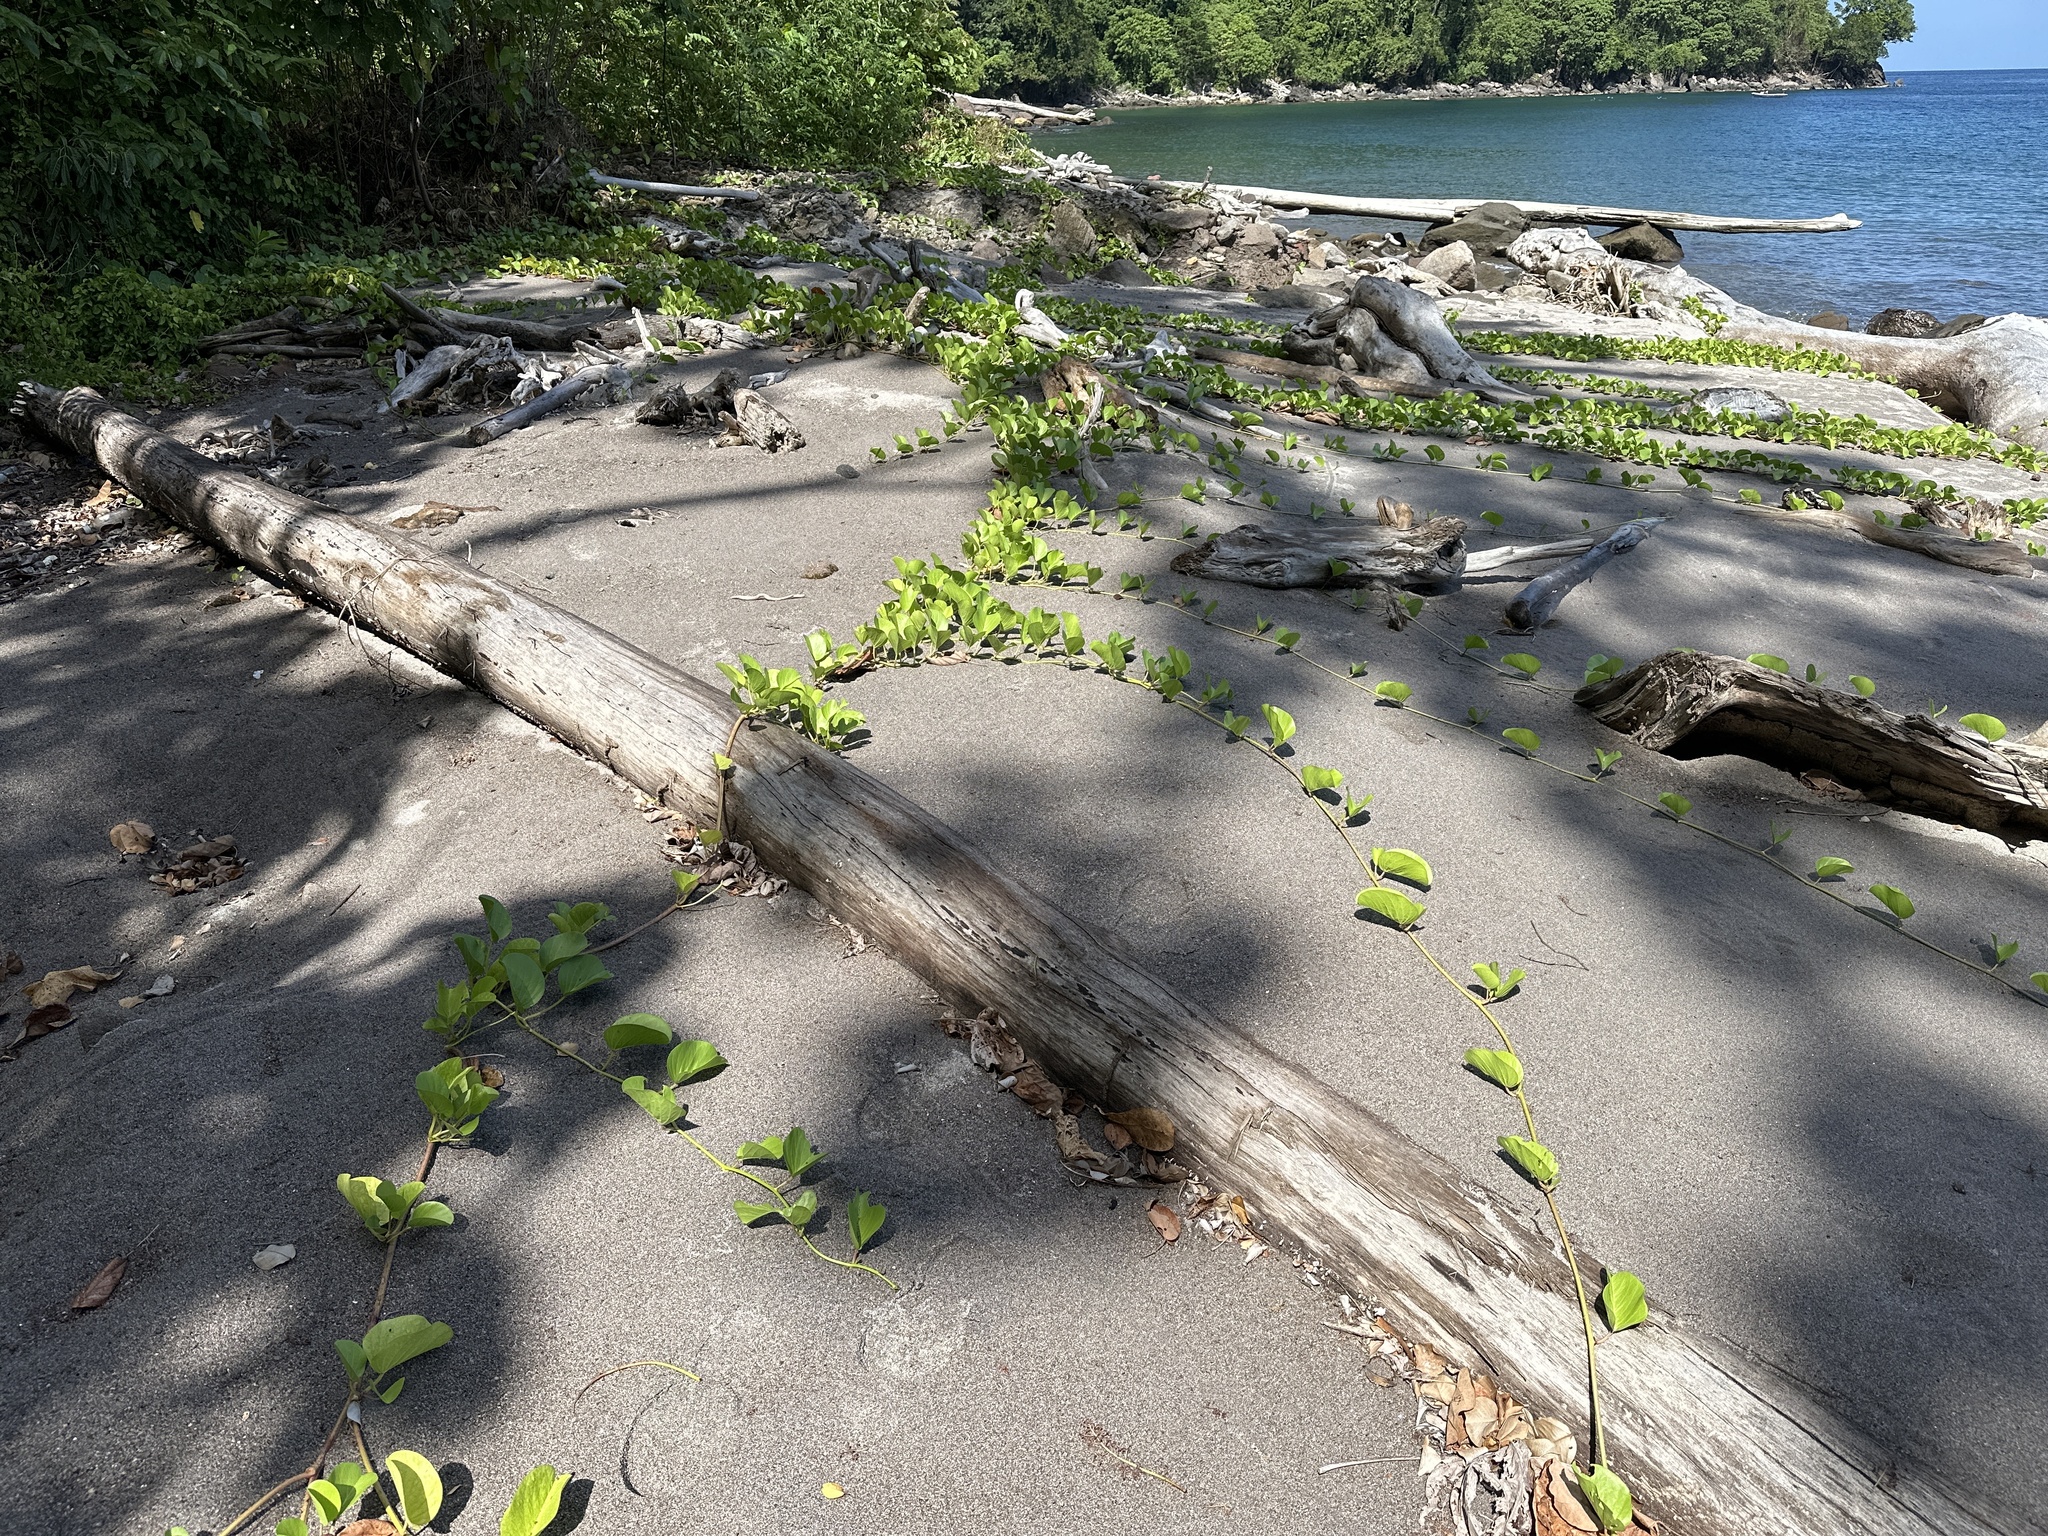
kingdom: Plantae
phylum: Tracheophyta
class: Magnoliopsida
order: Solanales
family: Convolvulaceae
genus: Ipomoea
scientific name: Ipomoea pes-caprae
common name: Beach morning glory
